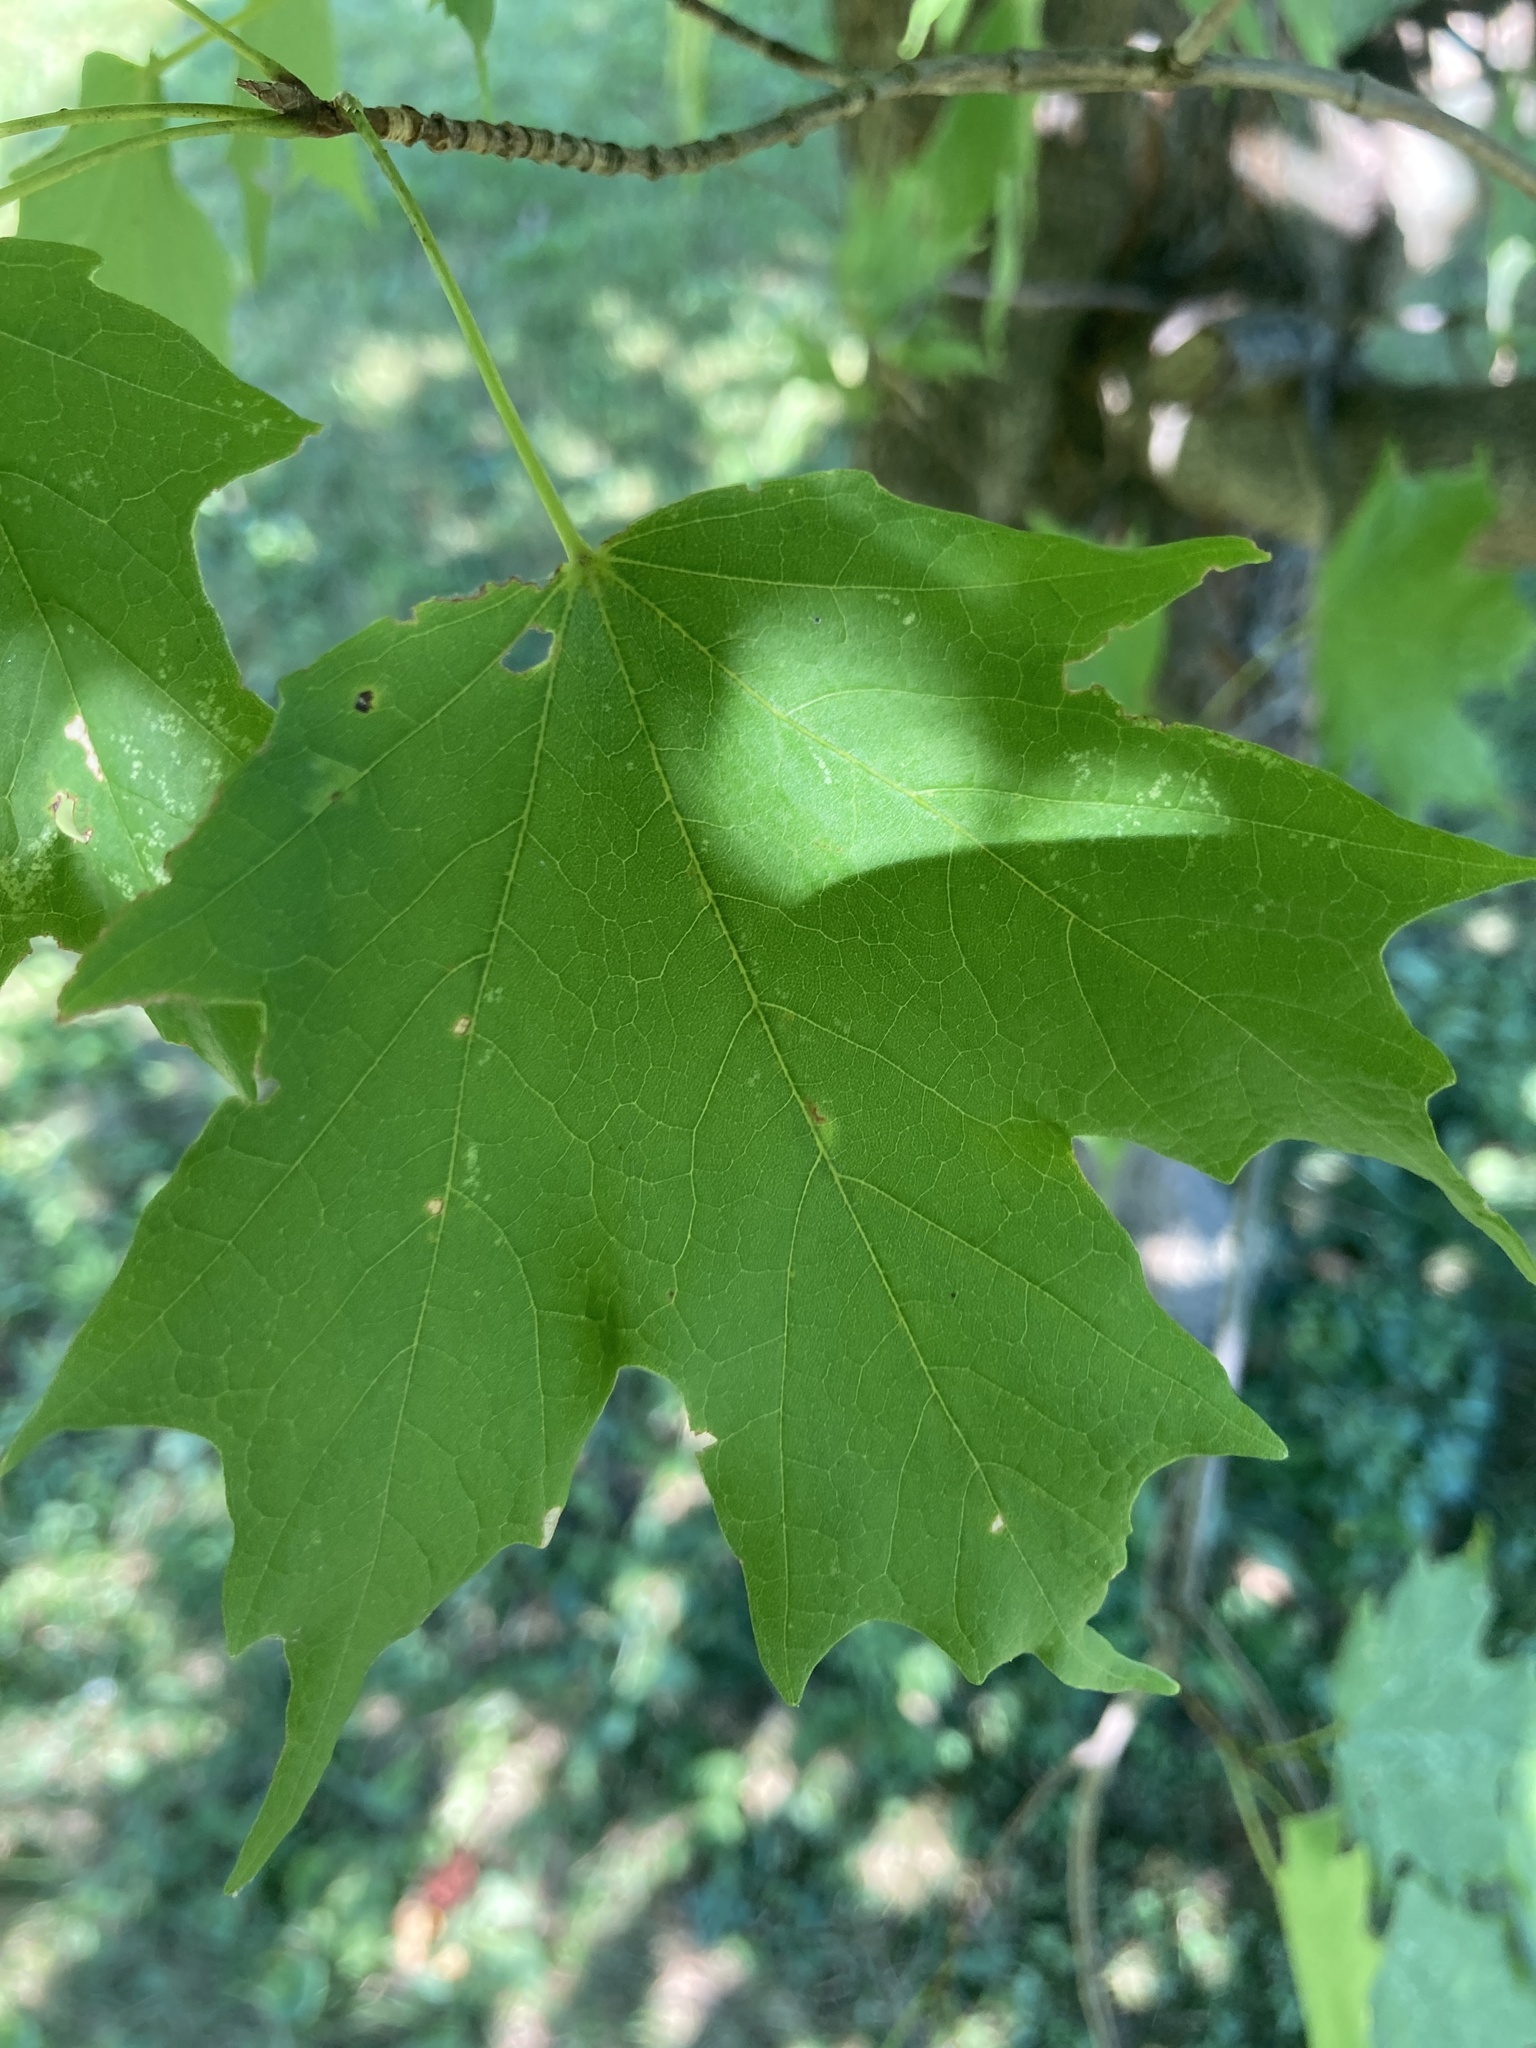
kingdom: Plantae
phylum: Tracheophyta
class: Magnoliopsida
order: Sapindales
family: Sapindaceae
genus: Acer
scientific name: Acer platanoides
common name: Norway maple
